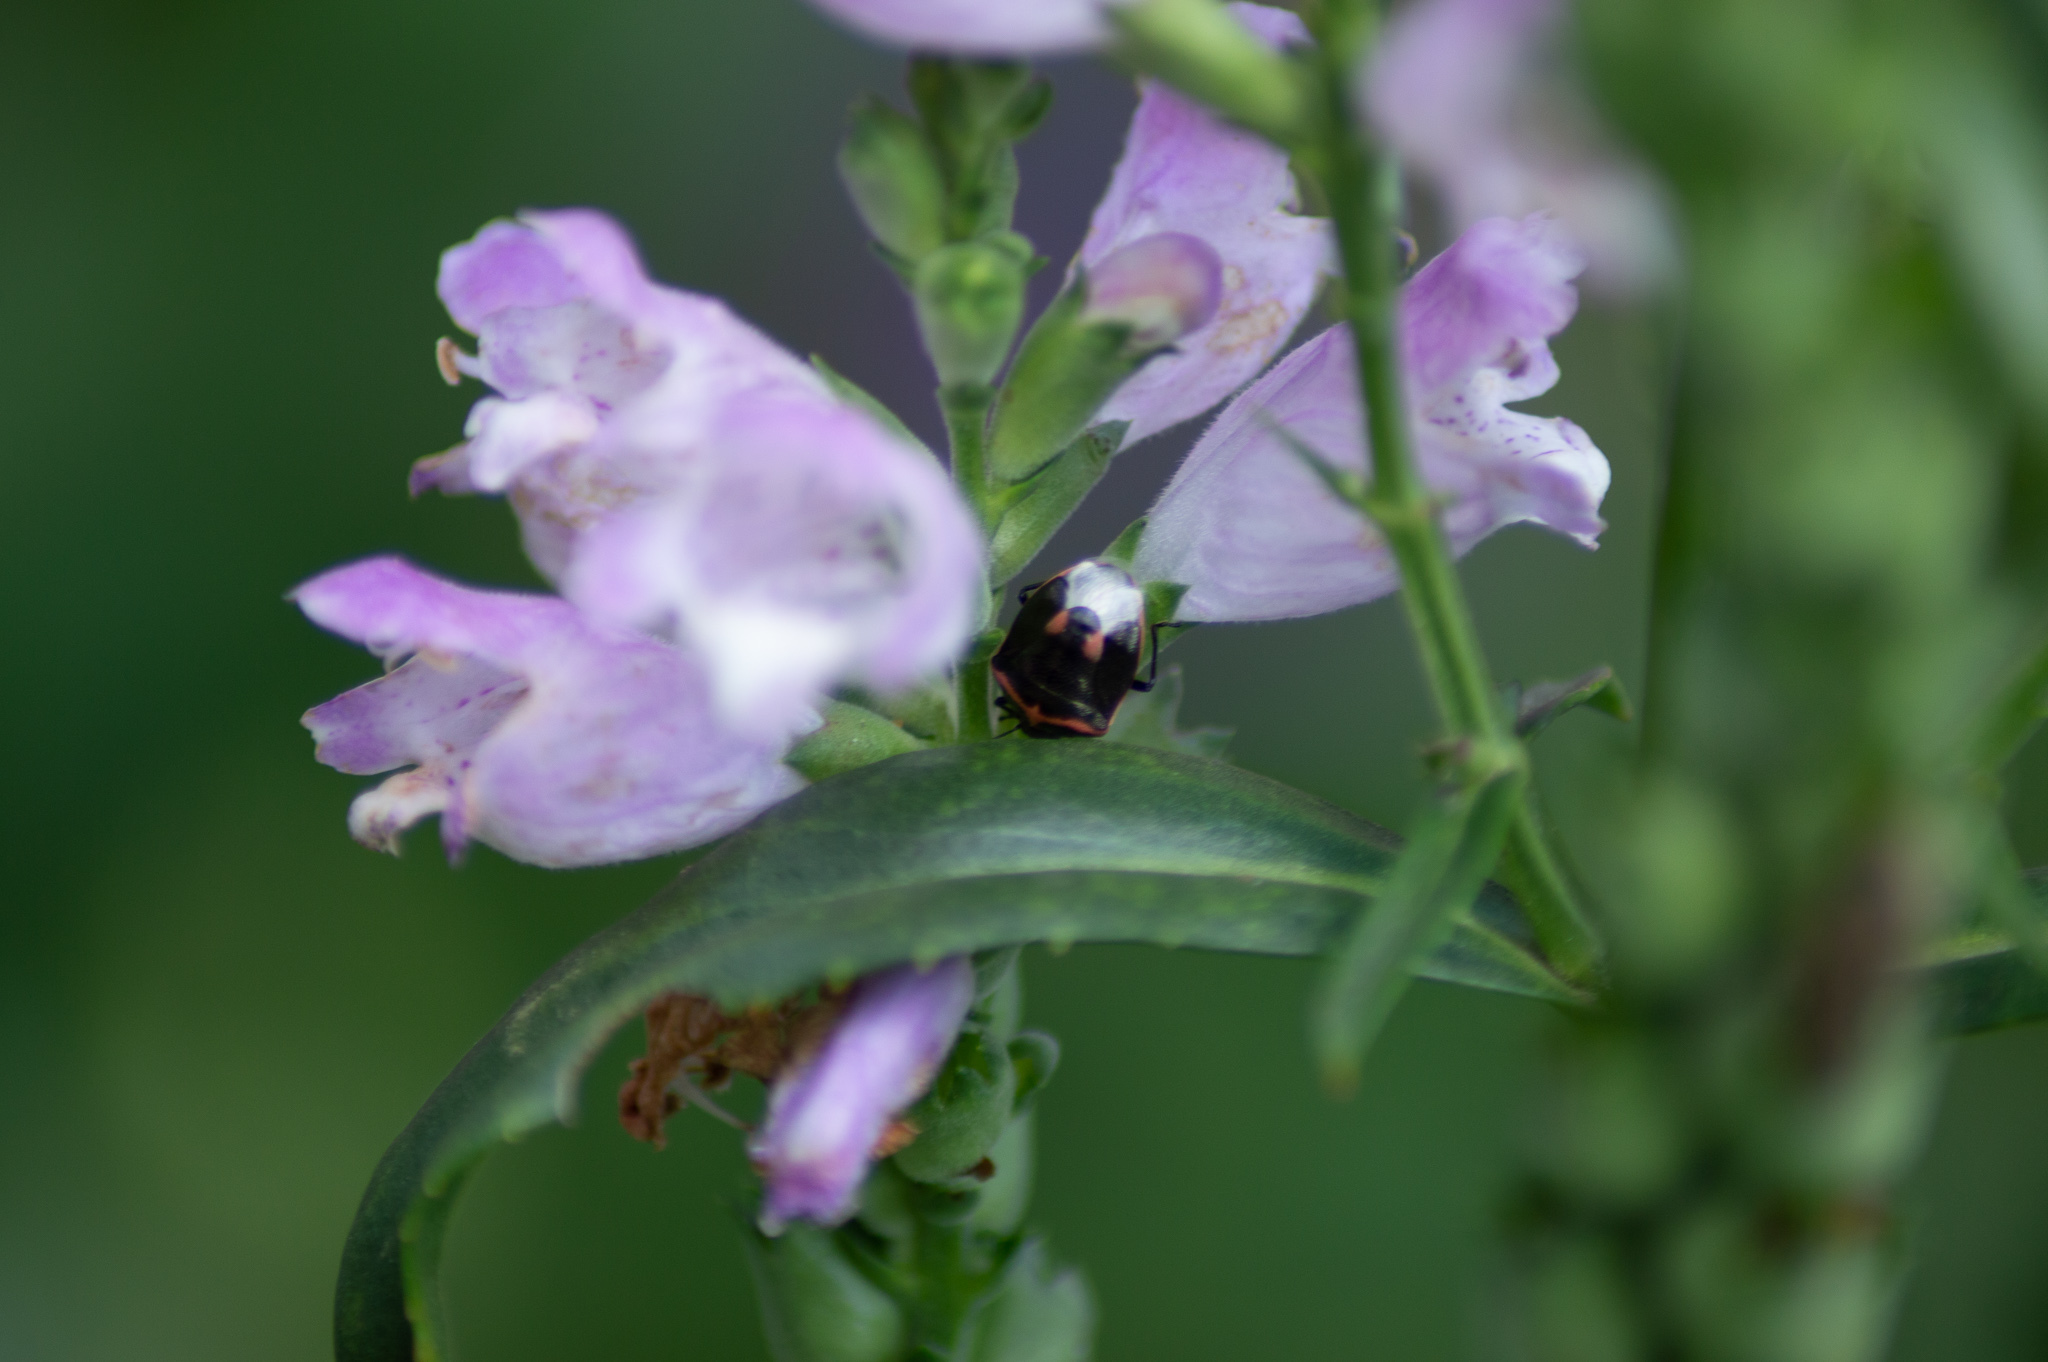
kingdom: Animalia
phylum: Arthropoda
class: Insecta
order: Hemiptera
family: Pentatomidae
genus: Cosmopepla
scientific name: Cosmopepla lintneriana
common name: Twice-stabbed stink bug
